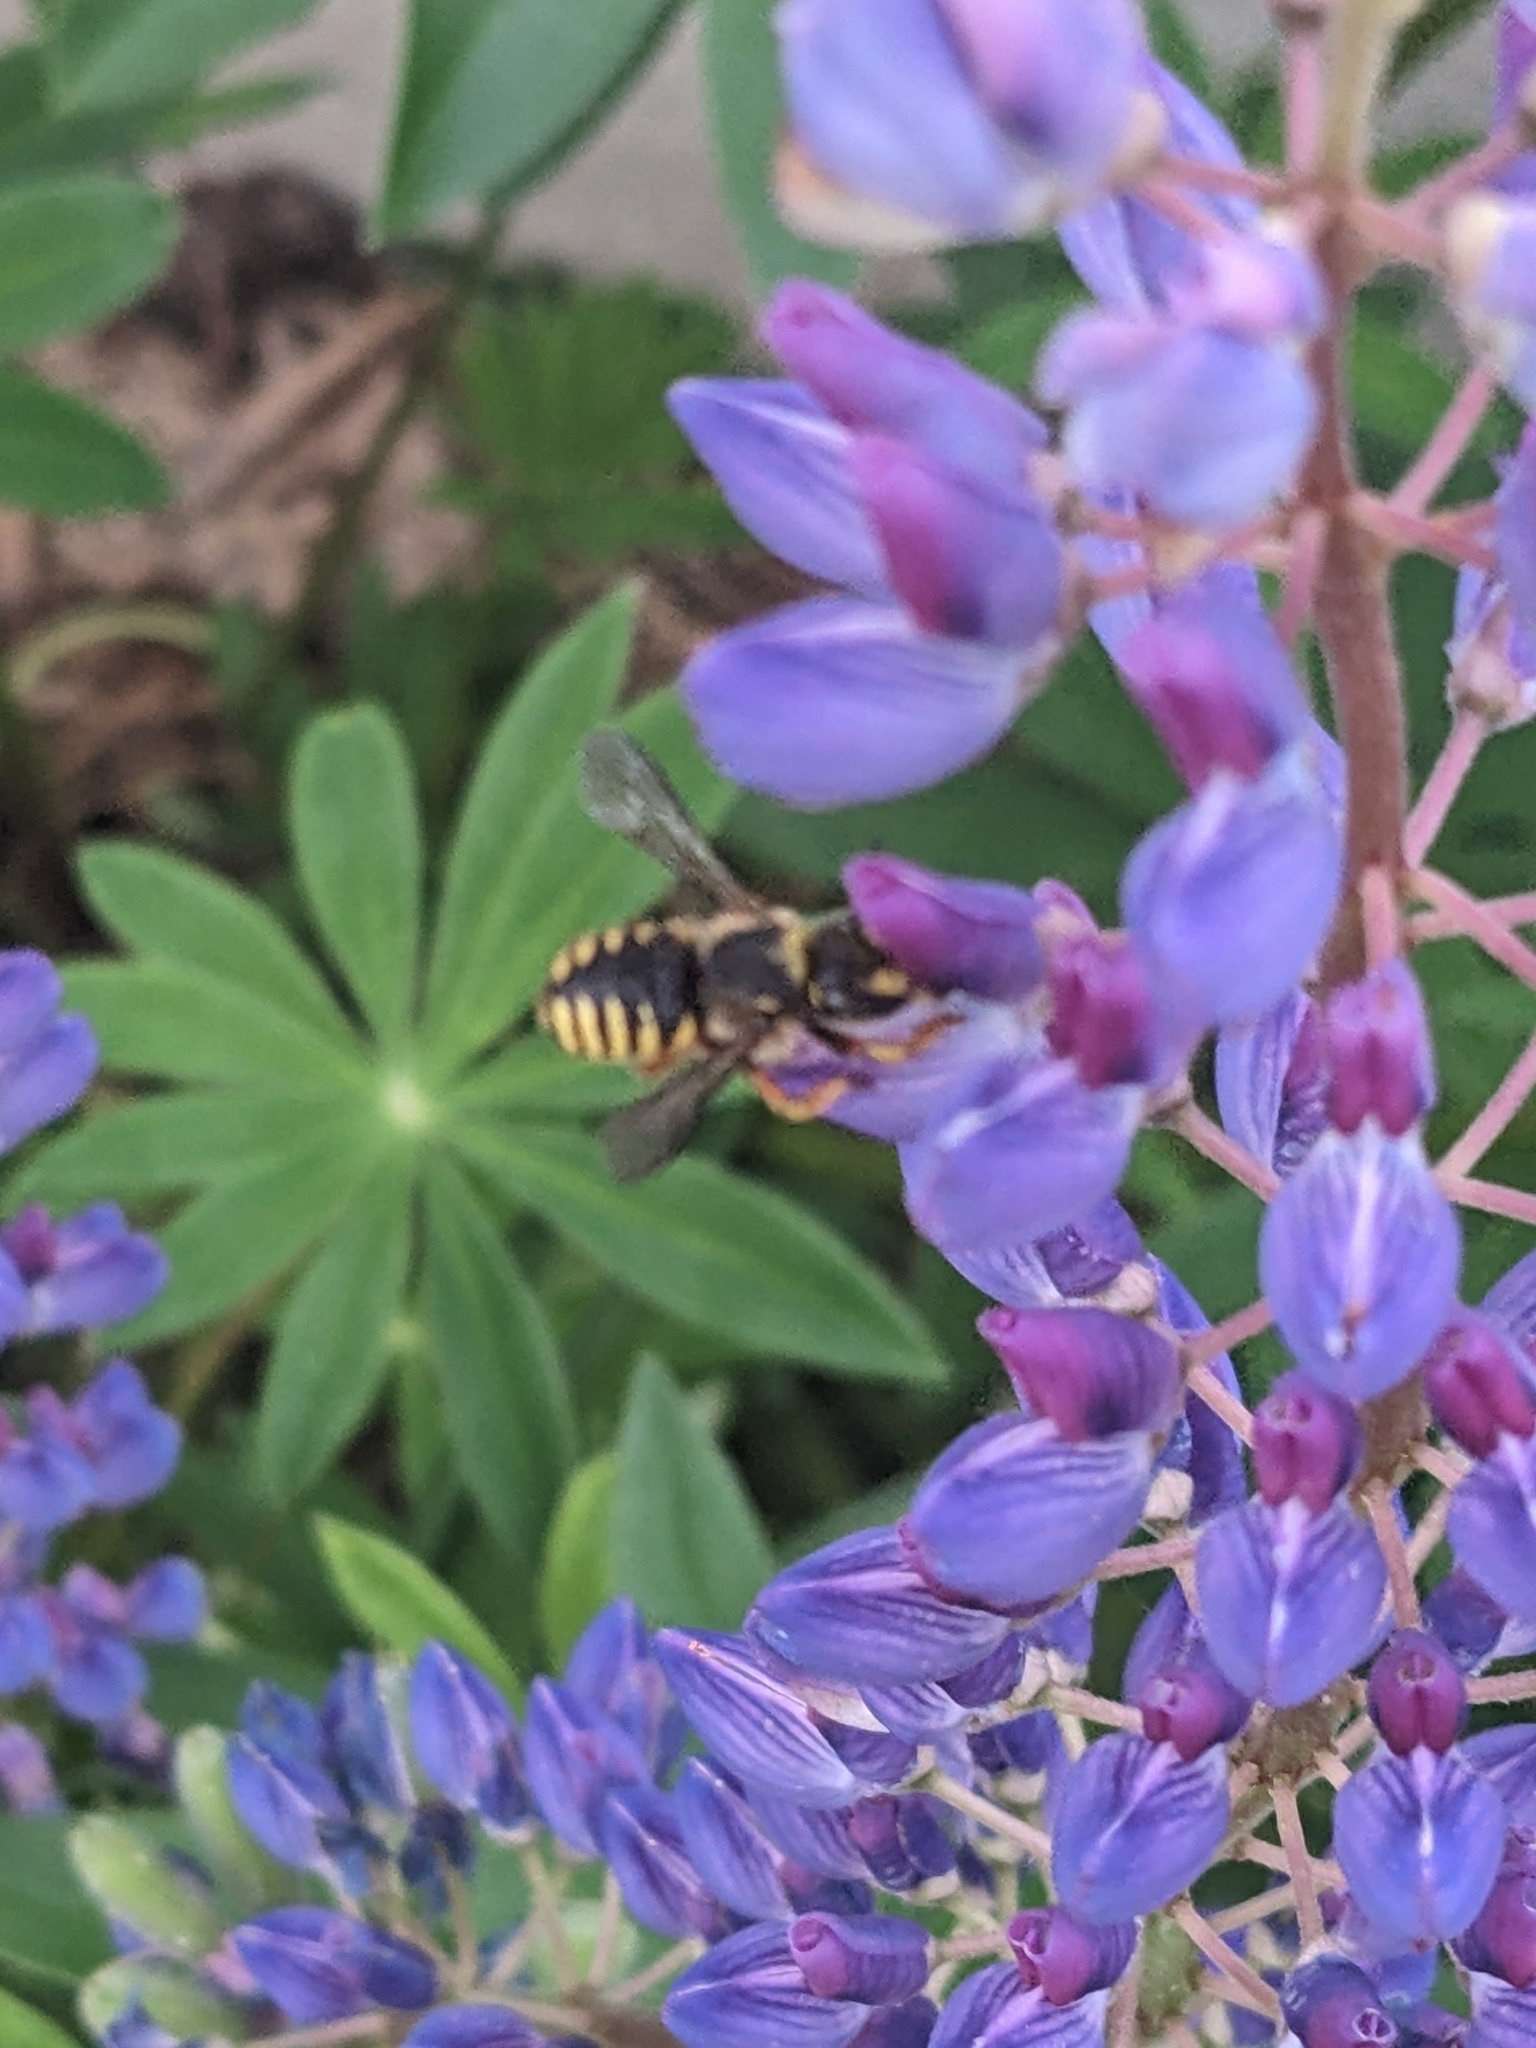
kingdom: Animalia
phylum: Arthropoda
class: Insecta
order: Hymenoptera
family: Megachilidae
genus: Anthidium
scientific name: Anthidium manicatum
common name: Wool carder bee
